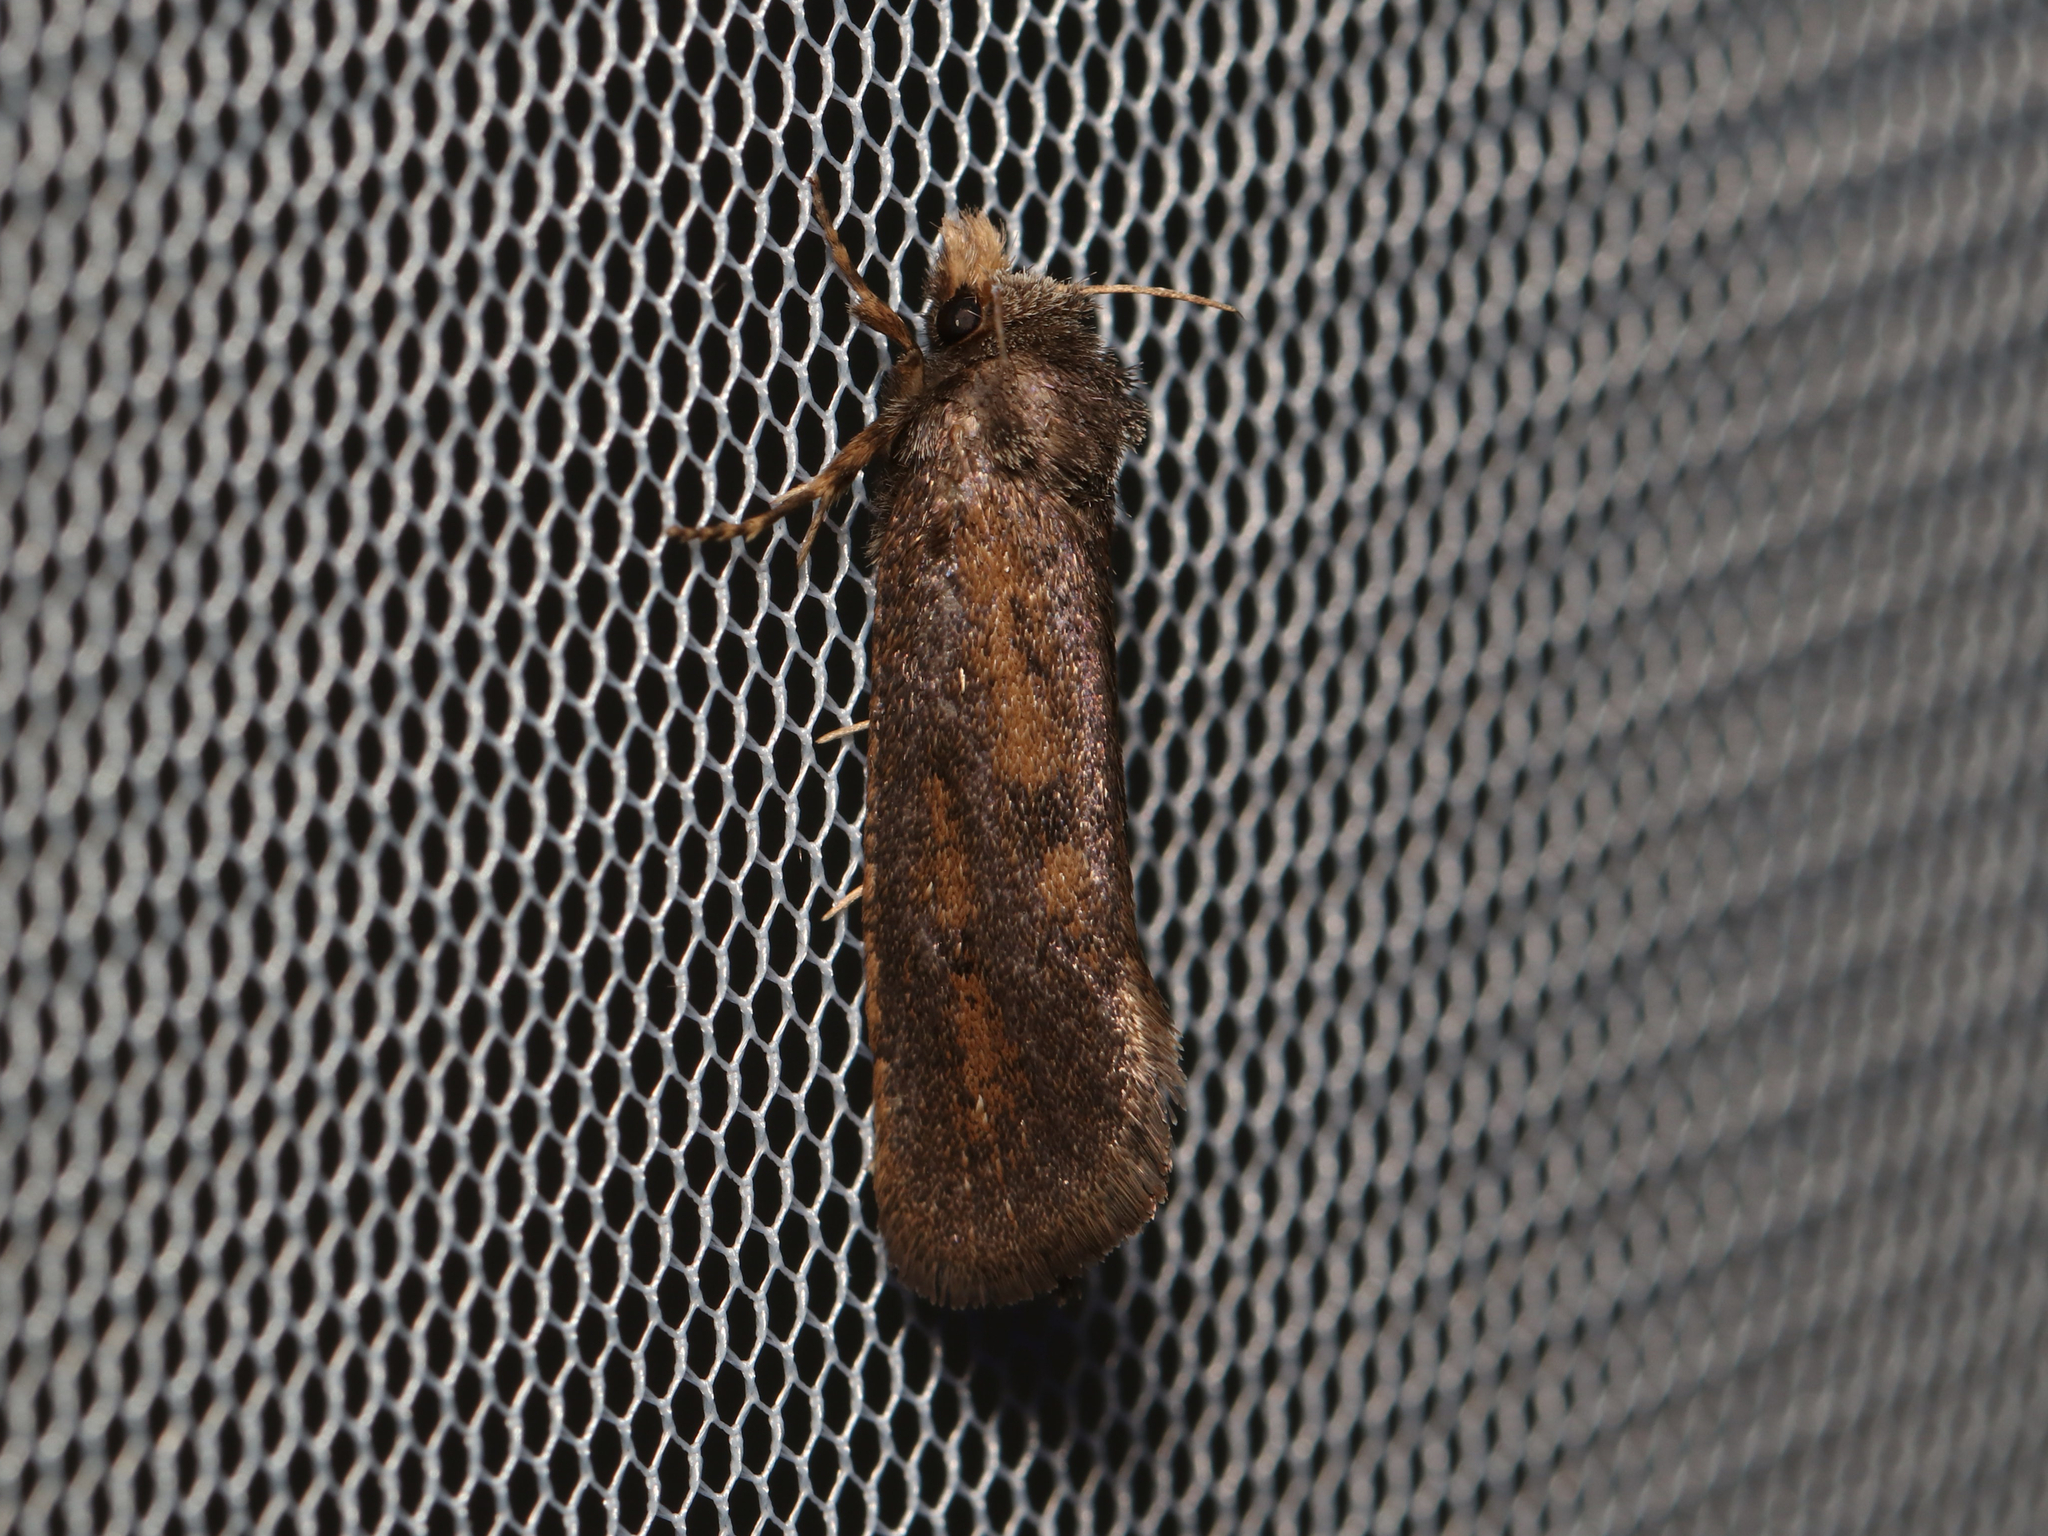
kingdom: Animalia
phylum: Arthropoda
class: Insecta
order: Lepidoptera
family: Tineidae
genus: Acrolophus
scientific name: Acrolophus popeanella
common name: Clemens' grass tubeworm moth
